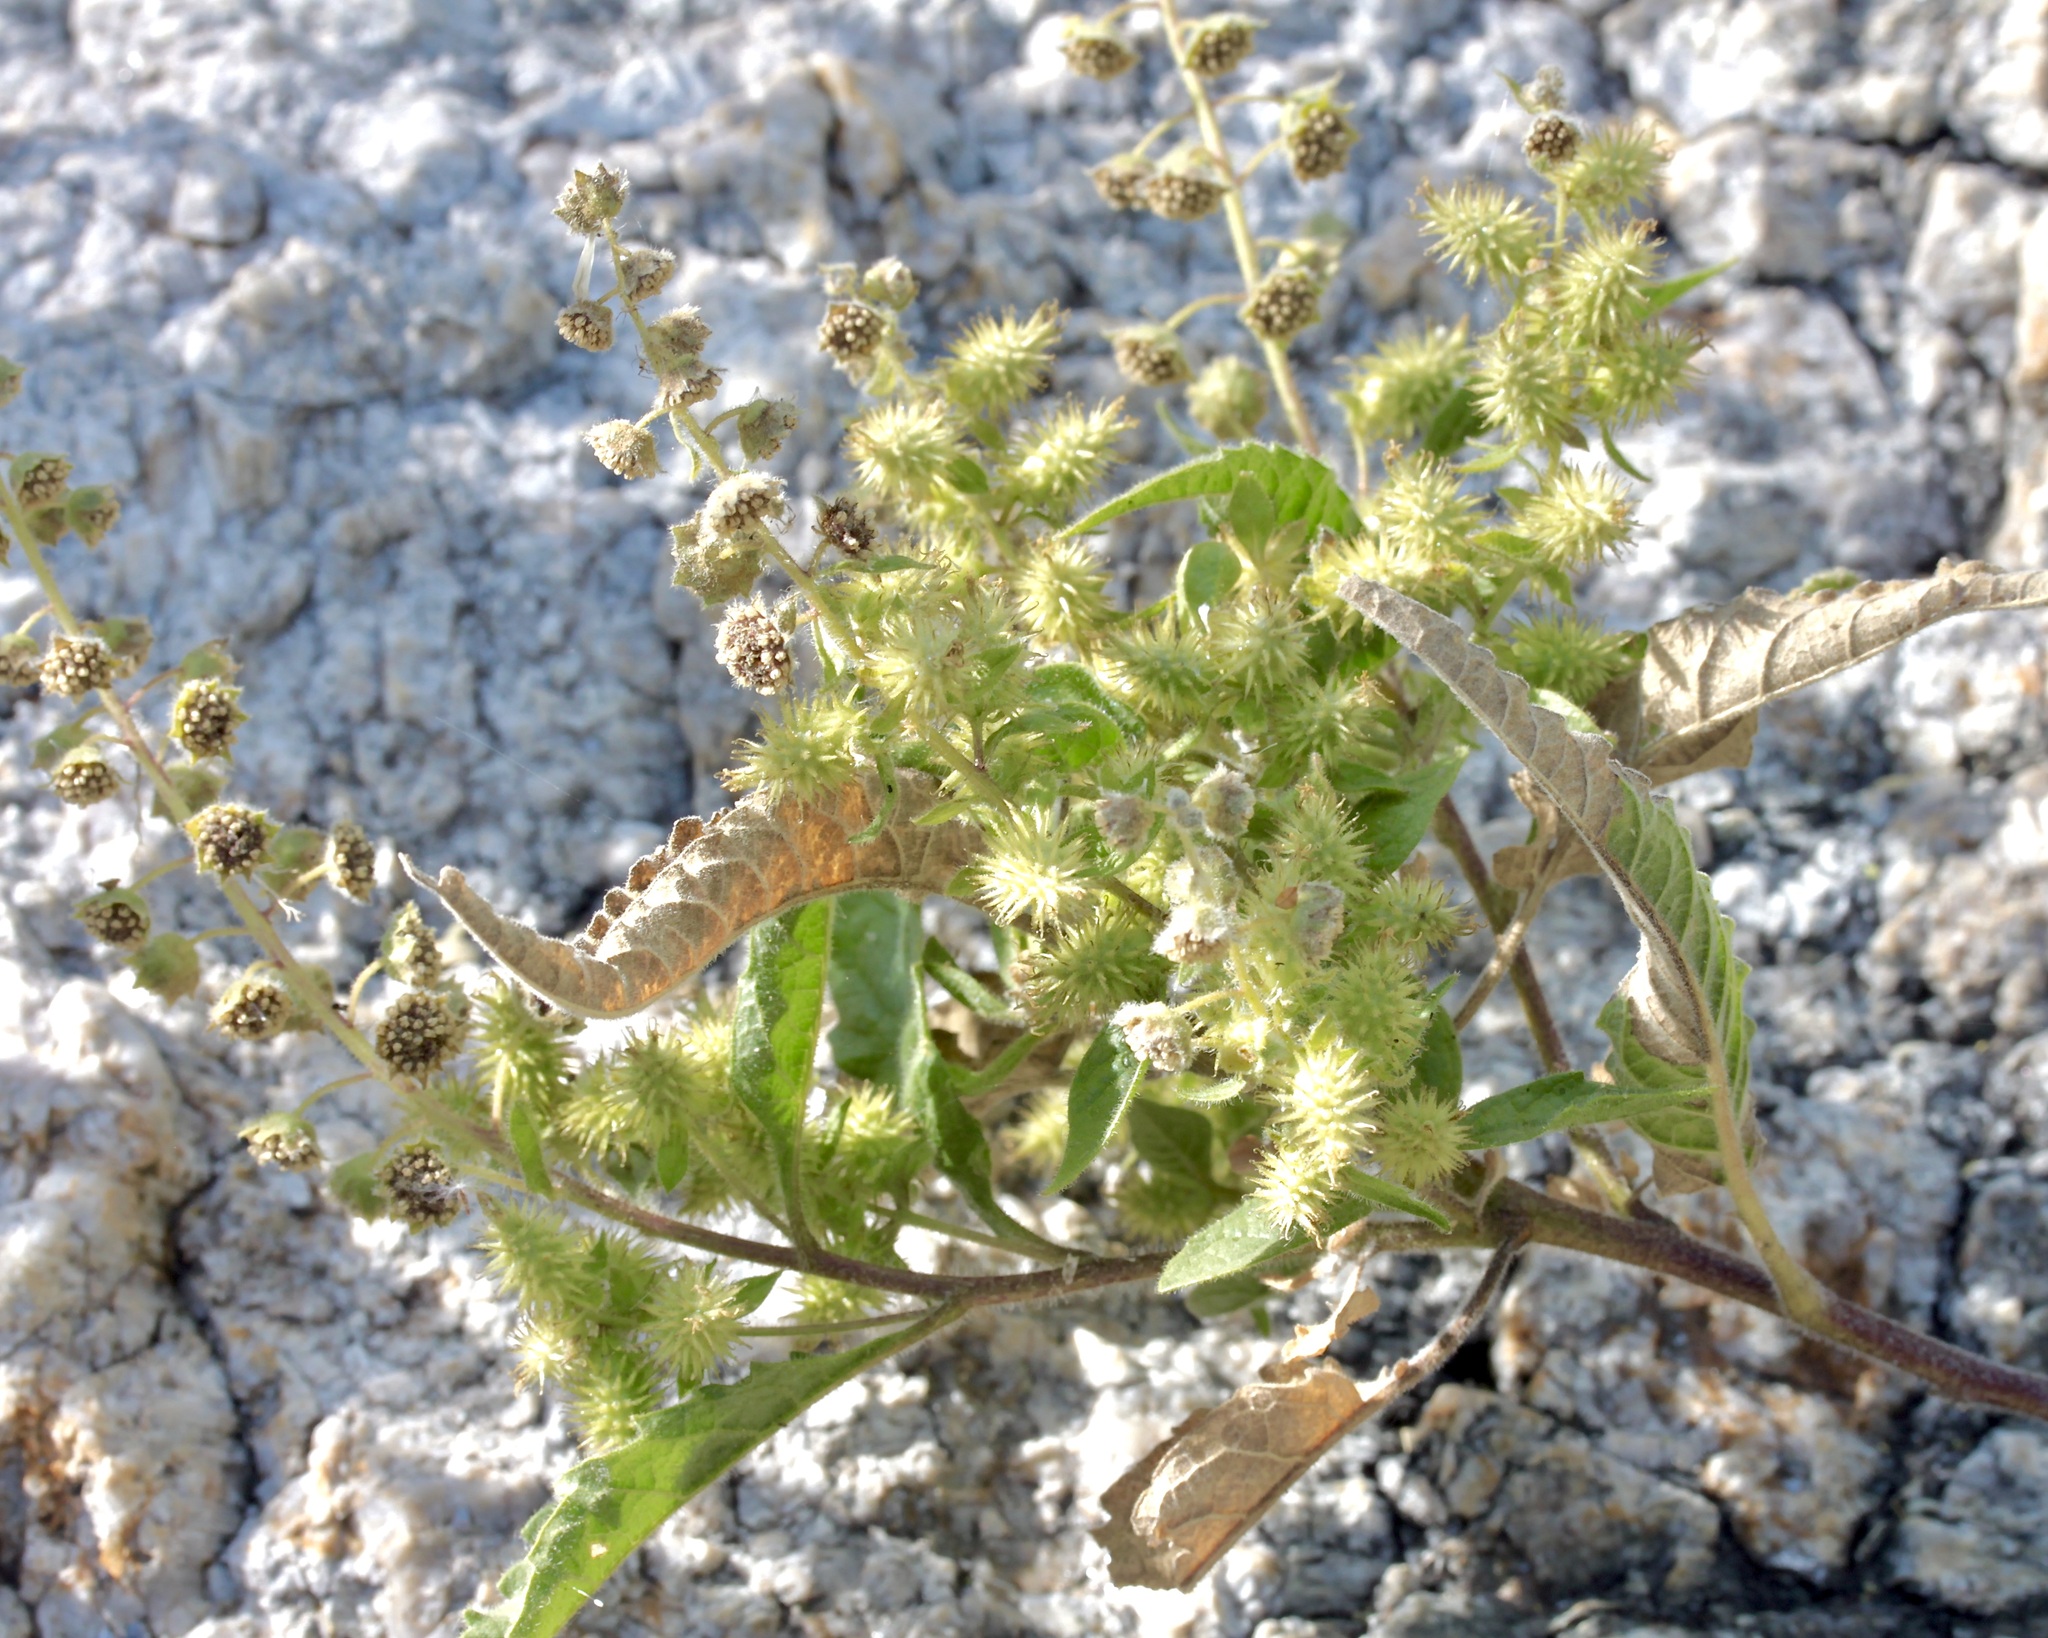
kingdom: Plantae
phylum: Tracheophyta
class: Magnoliopsida
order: Asterales
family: Asteraceae
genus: Ambrosia
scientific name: Ambrosia ambrosioides
